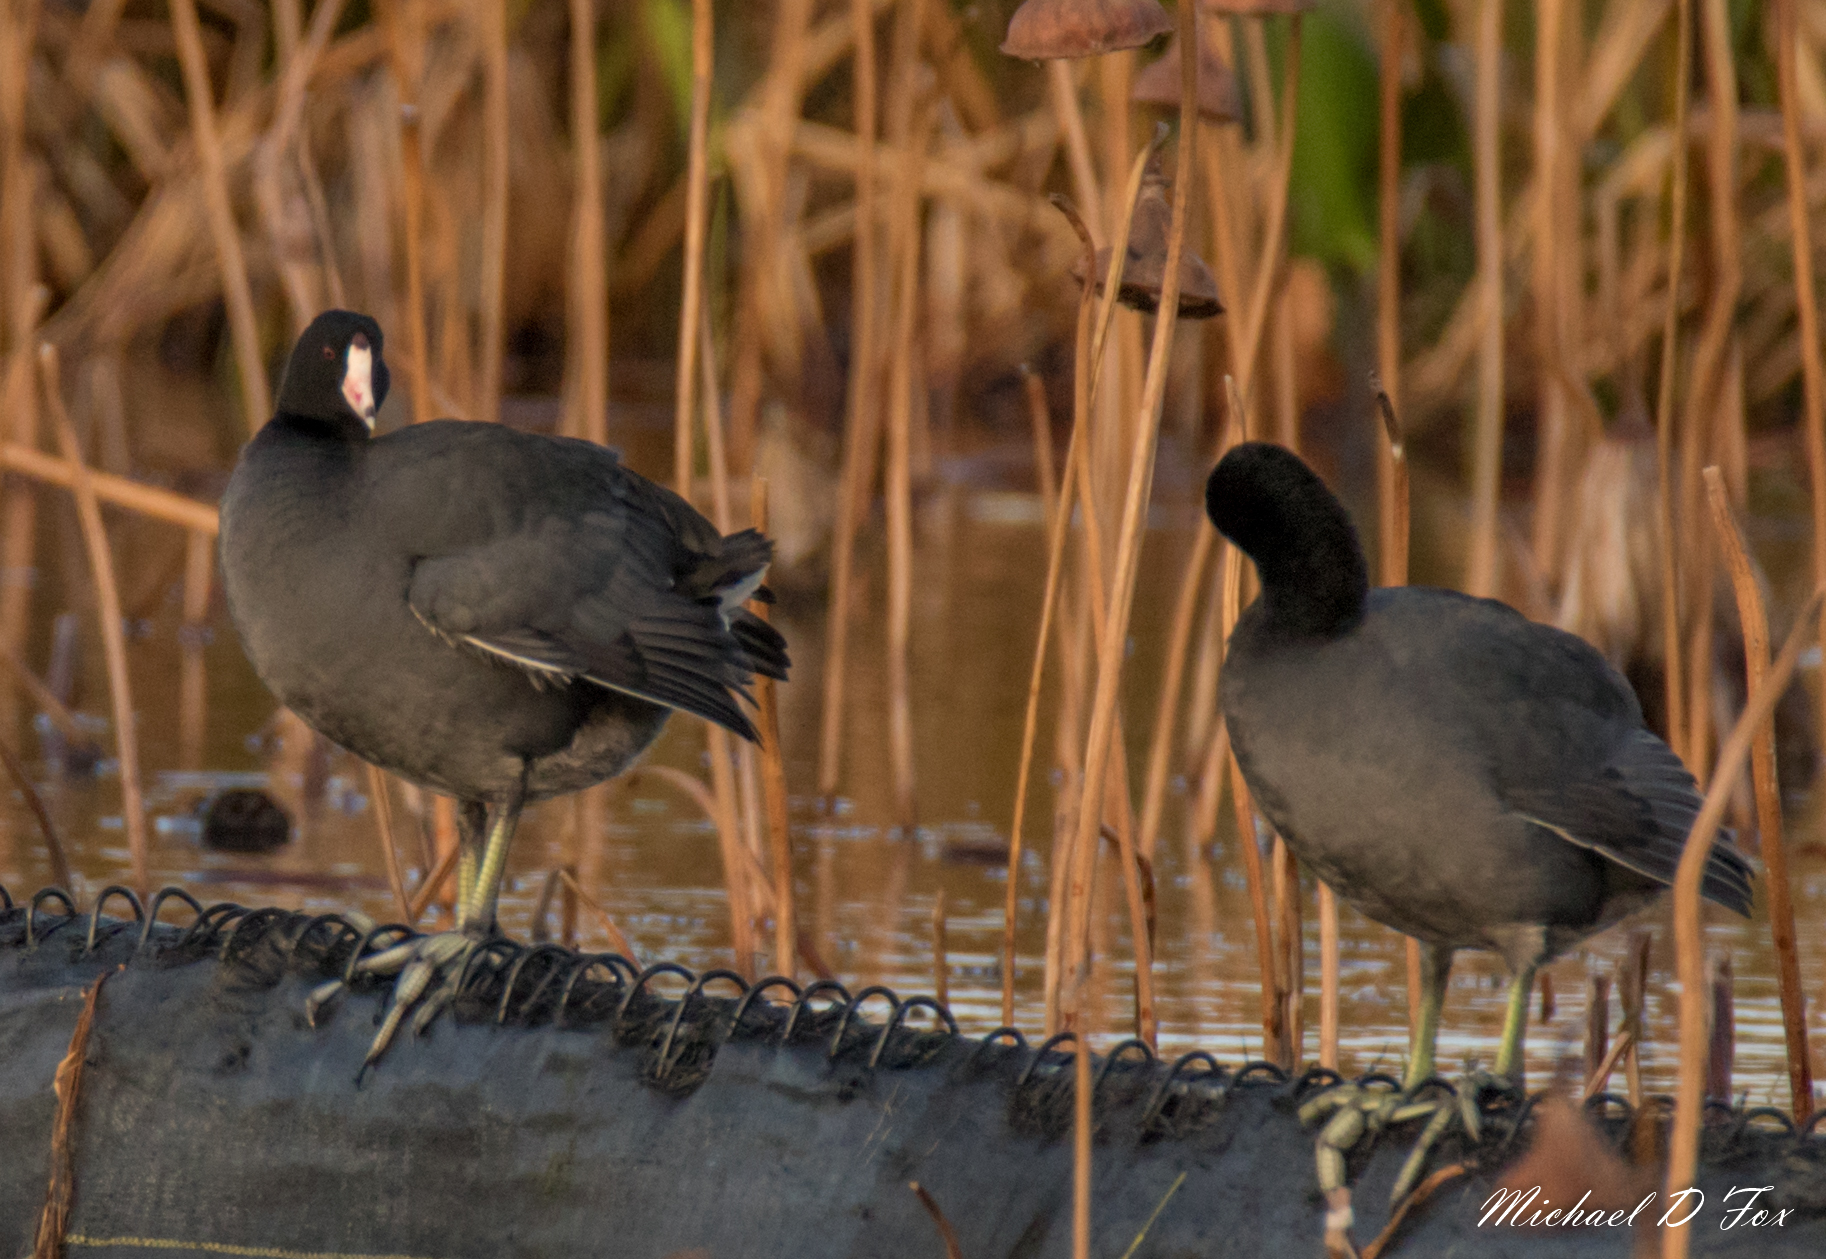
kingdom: Animalia
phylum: Chordata
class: Aves
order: Gruiformes
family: Rallidae
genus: Fulica
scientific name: Fulica americana
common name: American coot
